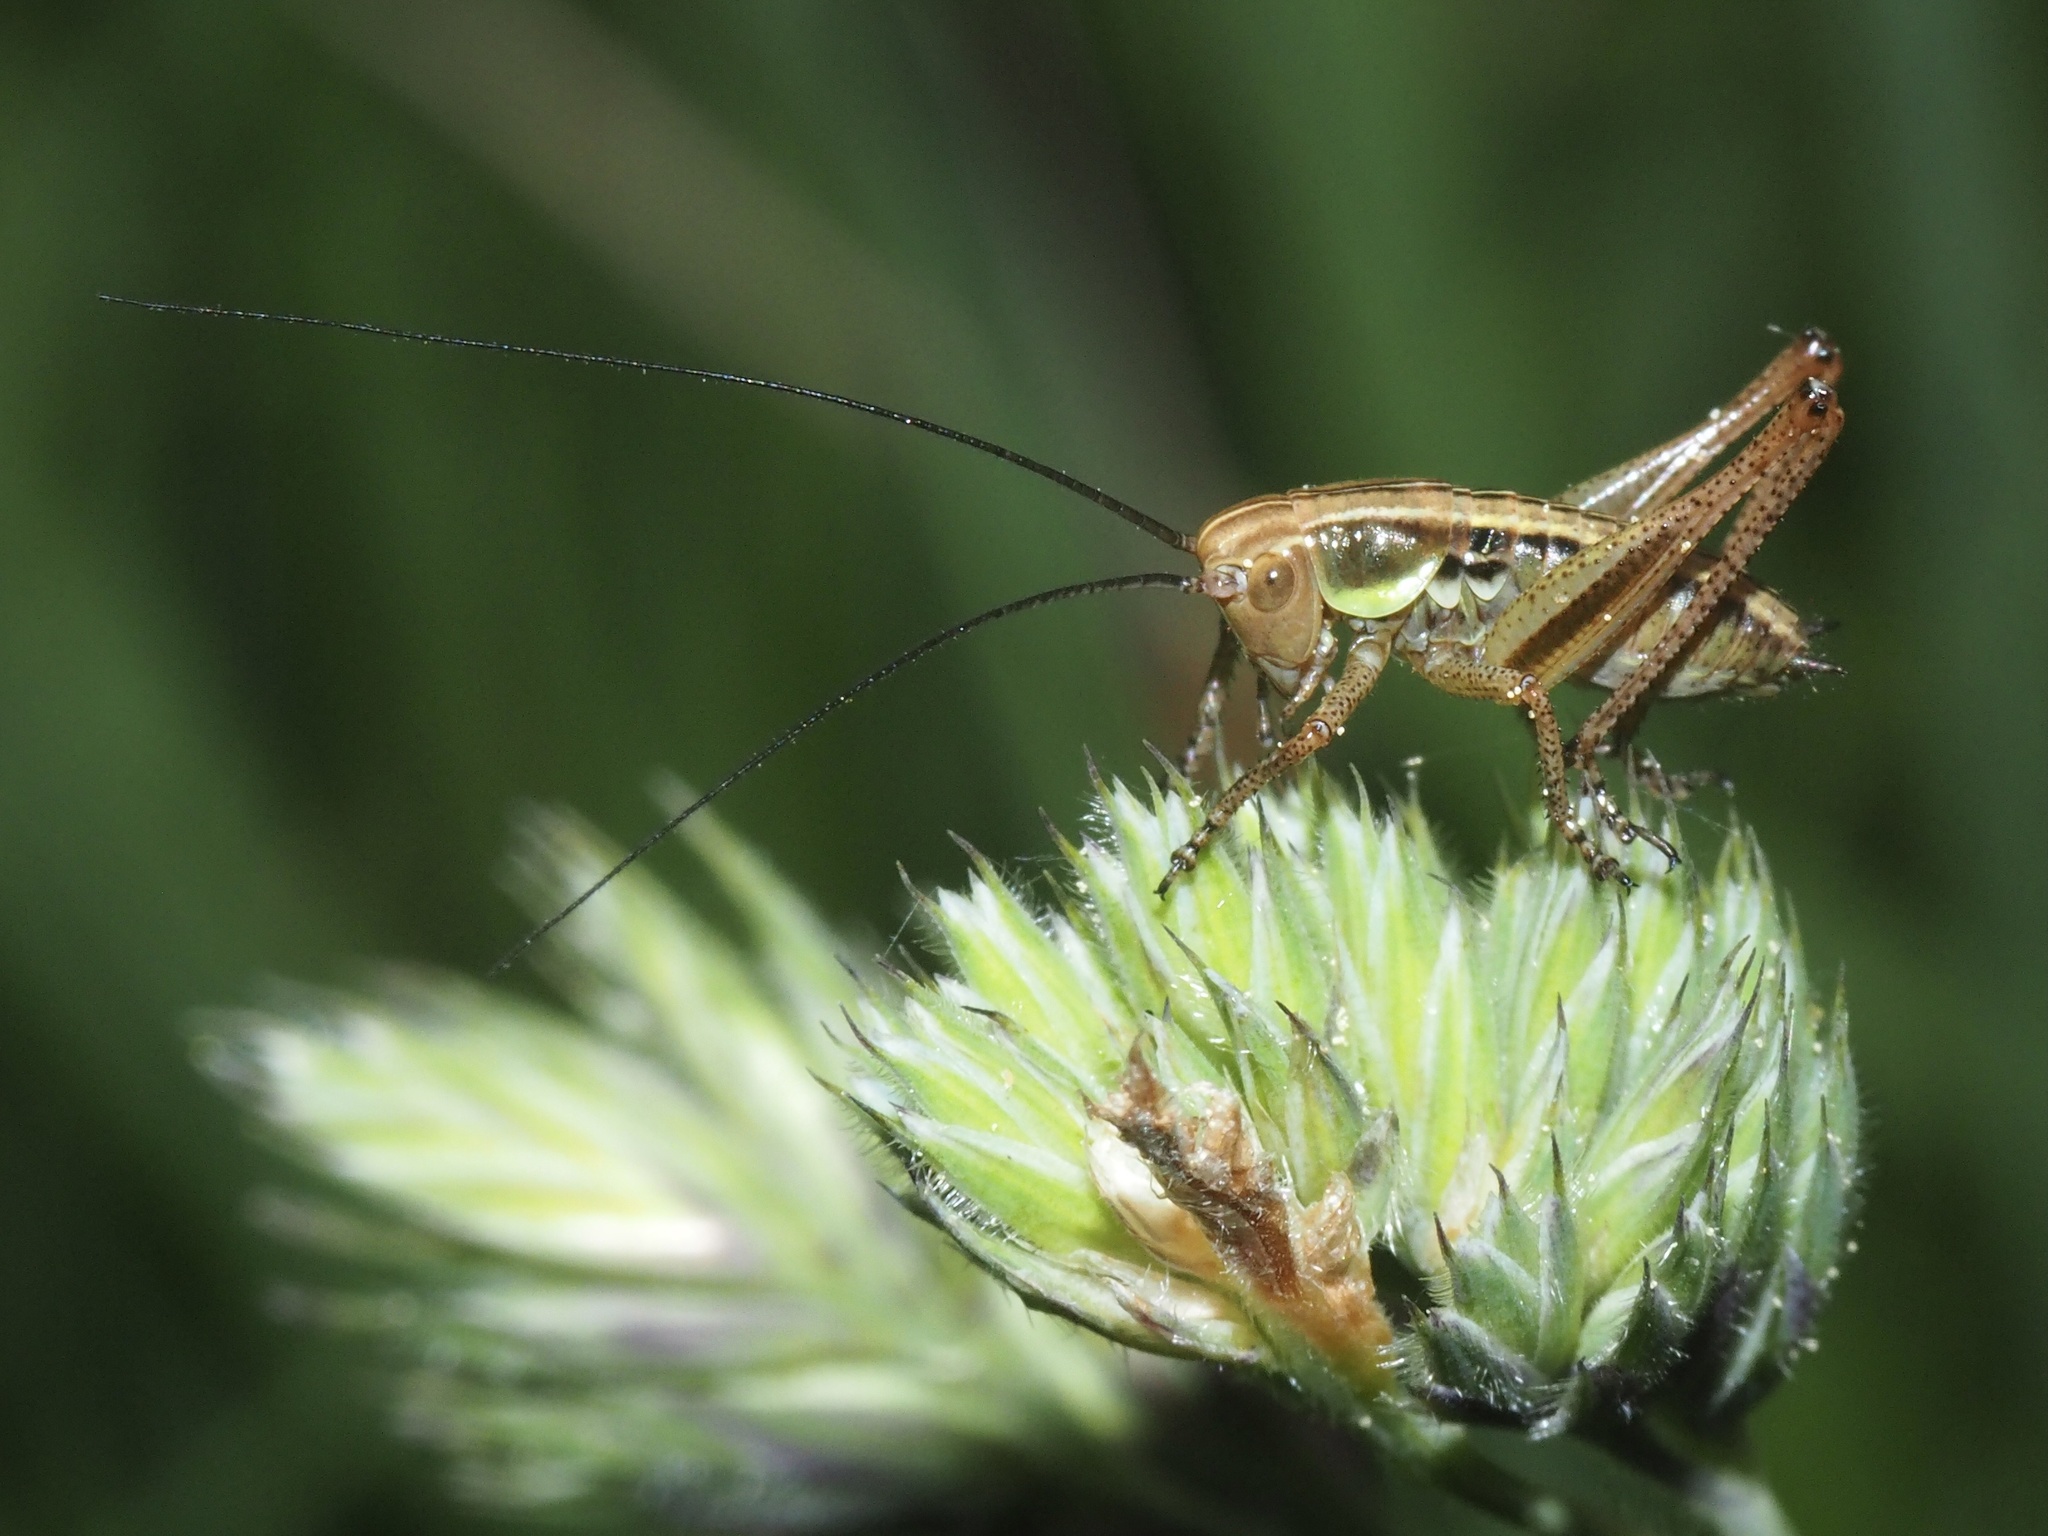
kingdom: Animalia
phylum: Arthropoda
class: Insecta
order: Orthoptera
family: Tettigoniidae
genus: Roeseliana
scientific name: Roeseliana roeselii
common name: Roesel's bush cricket
